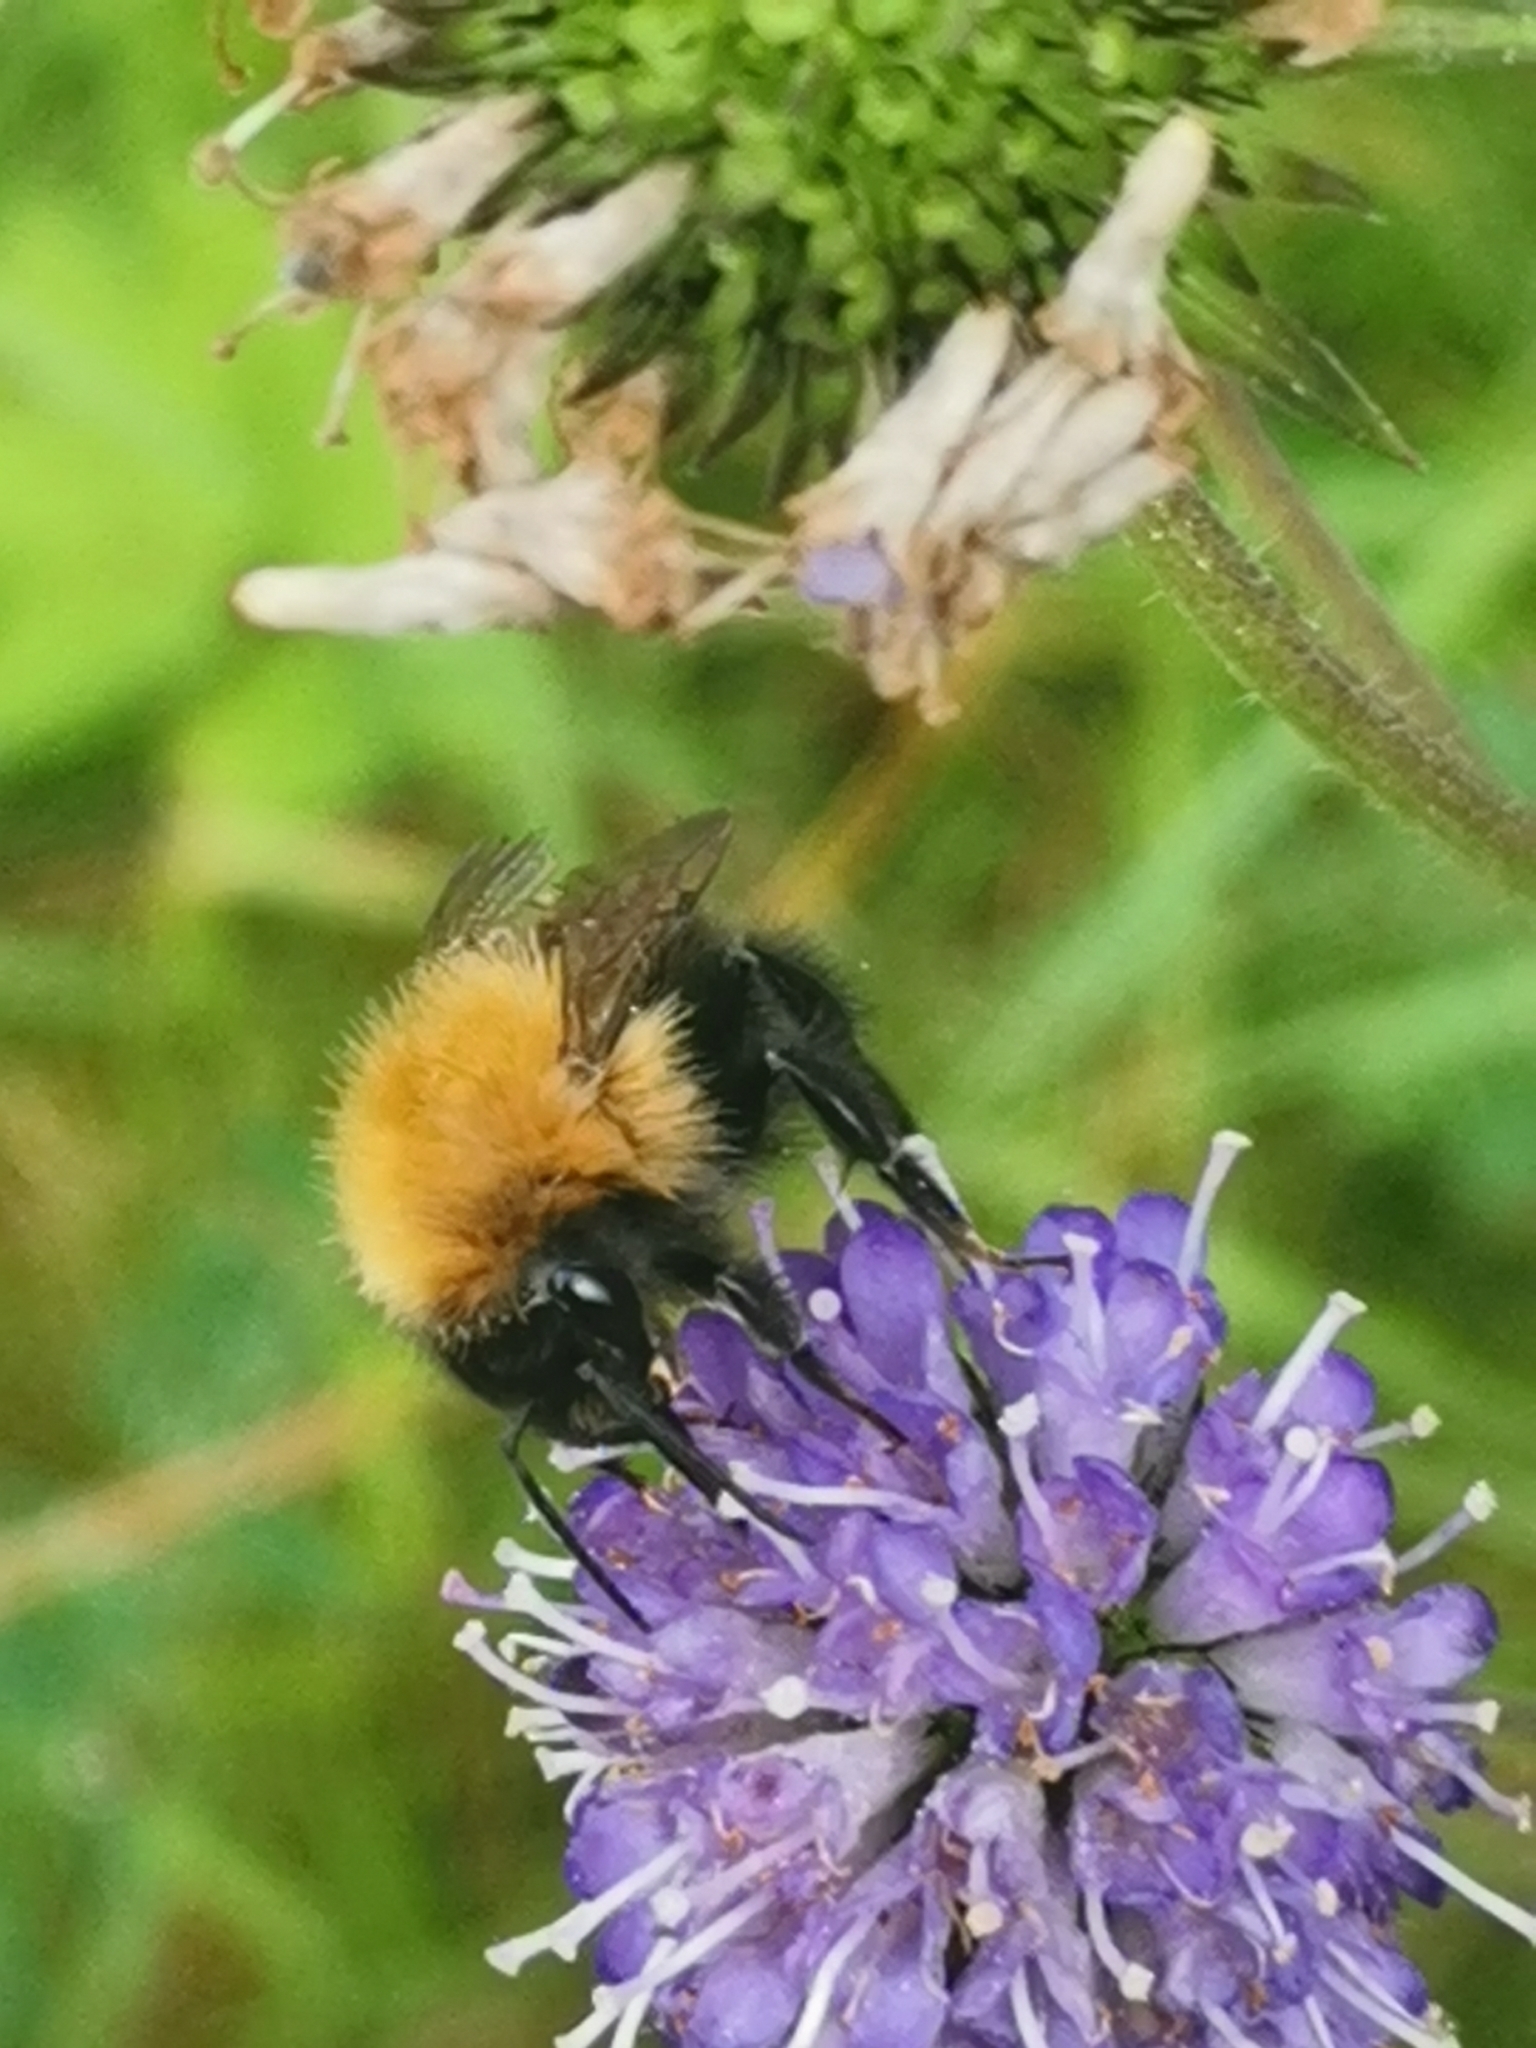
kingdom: Animalia
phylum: Arthropoda
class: Insecta
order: Hymenoptera
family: Apidae
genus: Bombus
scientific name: Bombus pascuorum
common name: Common carder bee
